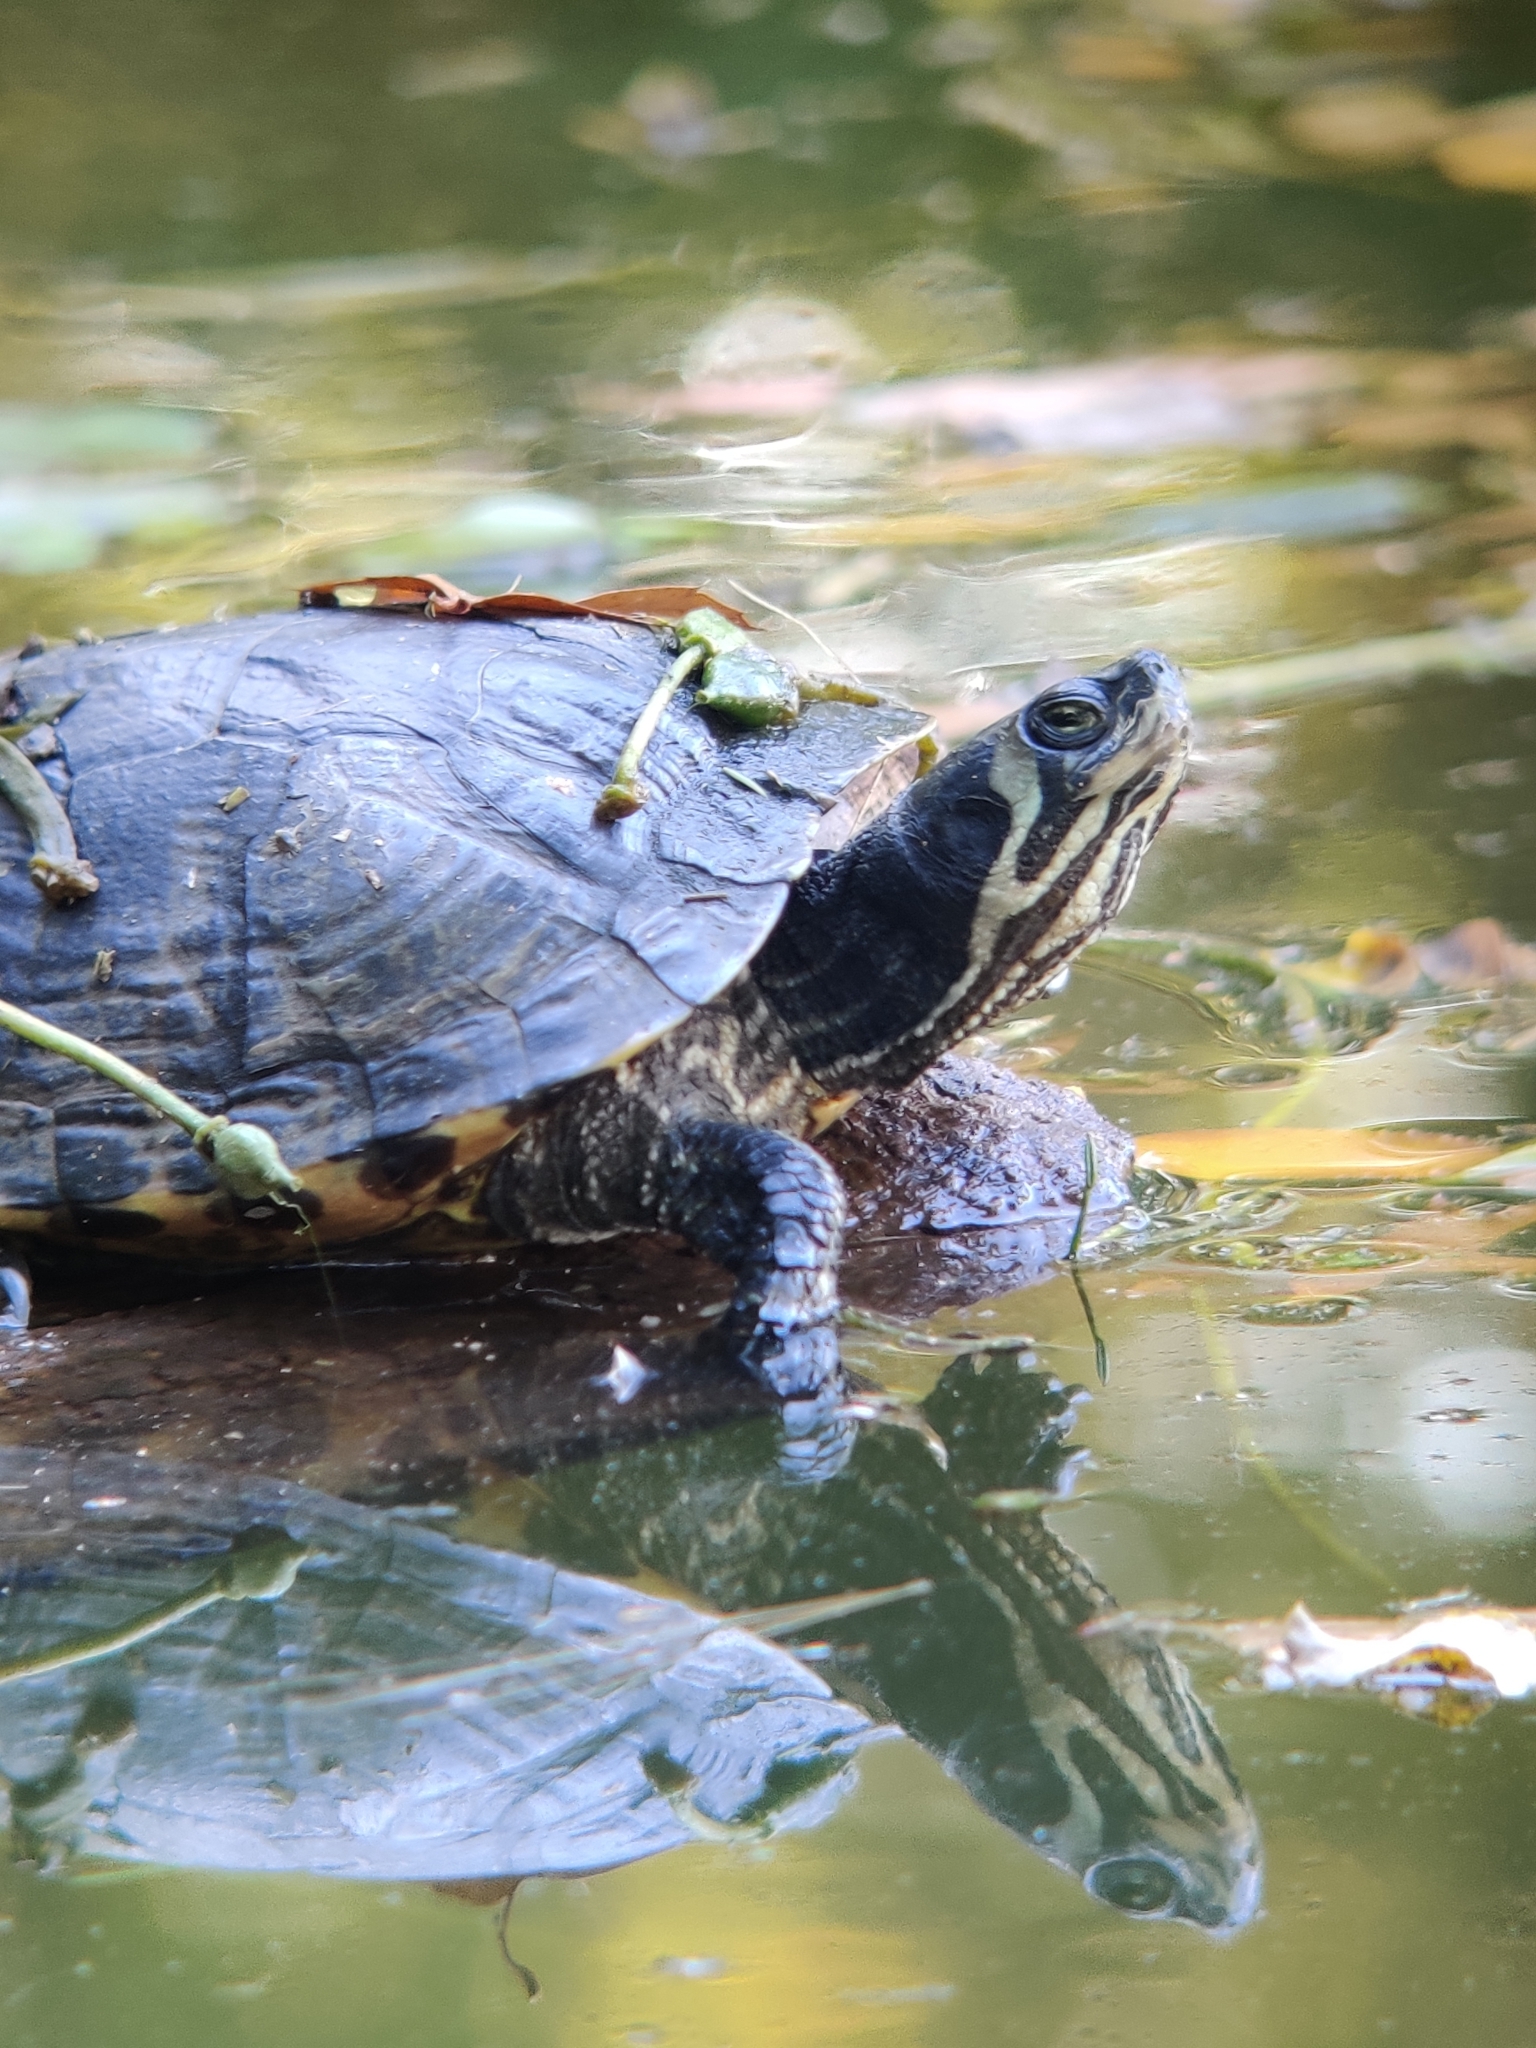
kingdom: Animalia
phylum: Chordata
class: Testudines
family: Emydidae
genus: Trachemys
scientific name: Trachemys scripta
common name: Slider
